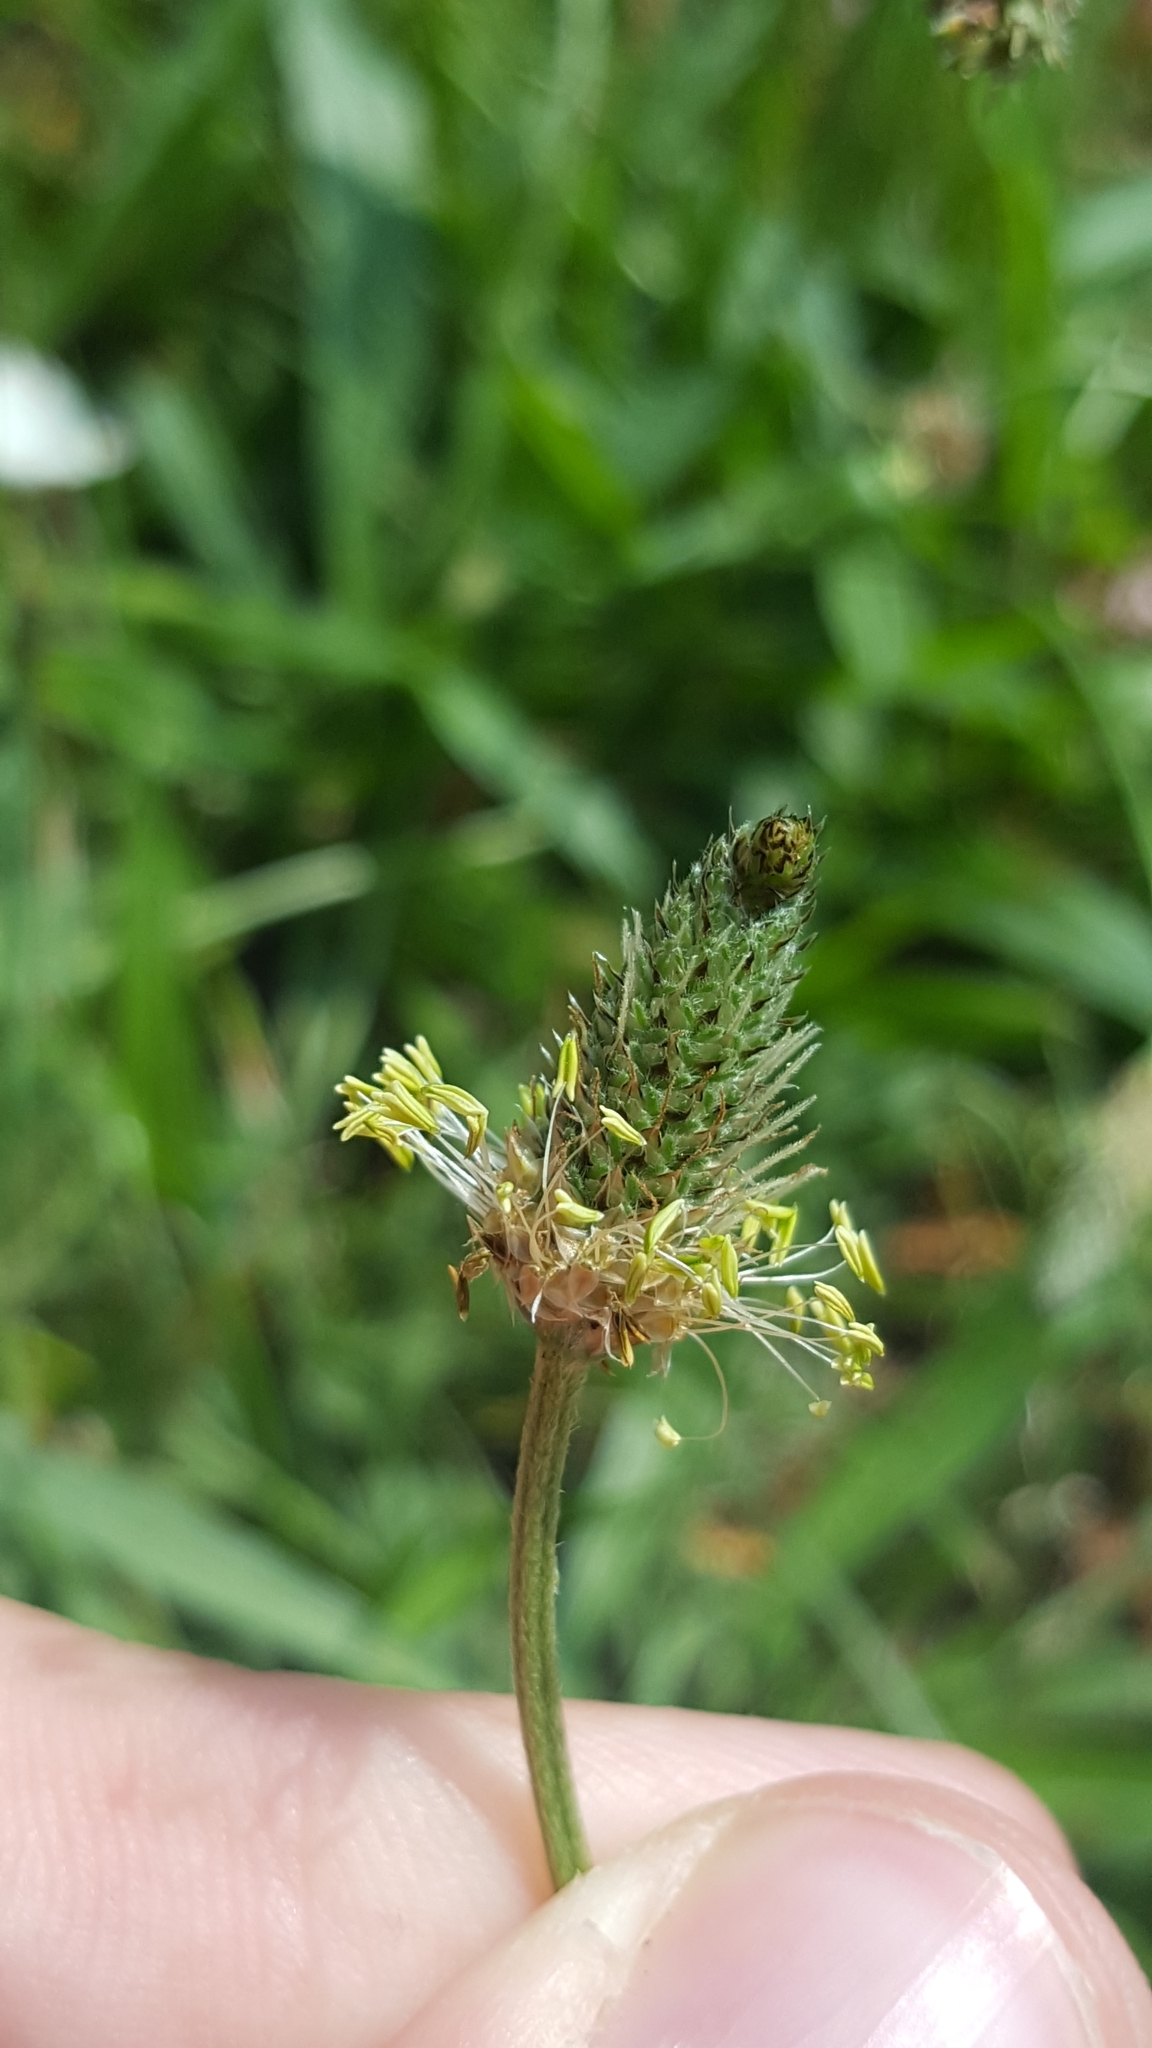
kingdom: Plantae
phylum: Tracheophyta
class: Magnoliopsida
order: Lamiales
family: Plantaginaceae
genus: Plantago
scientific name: Plantago lanceolata
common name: Ribwort plantain
